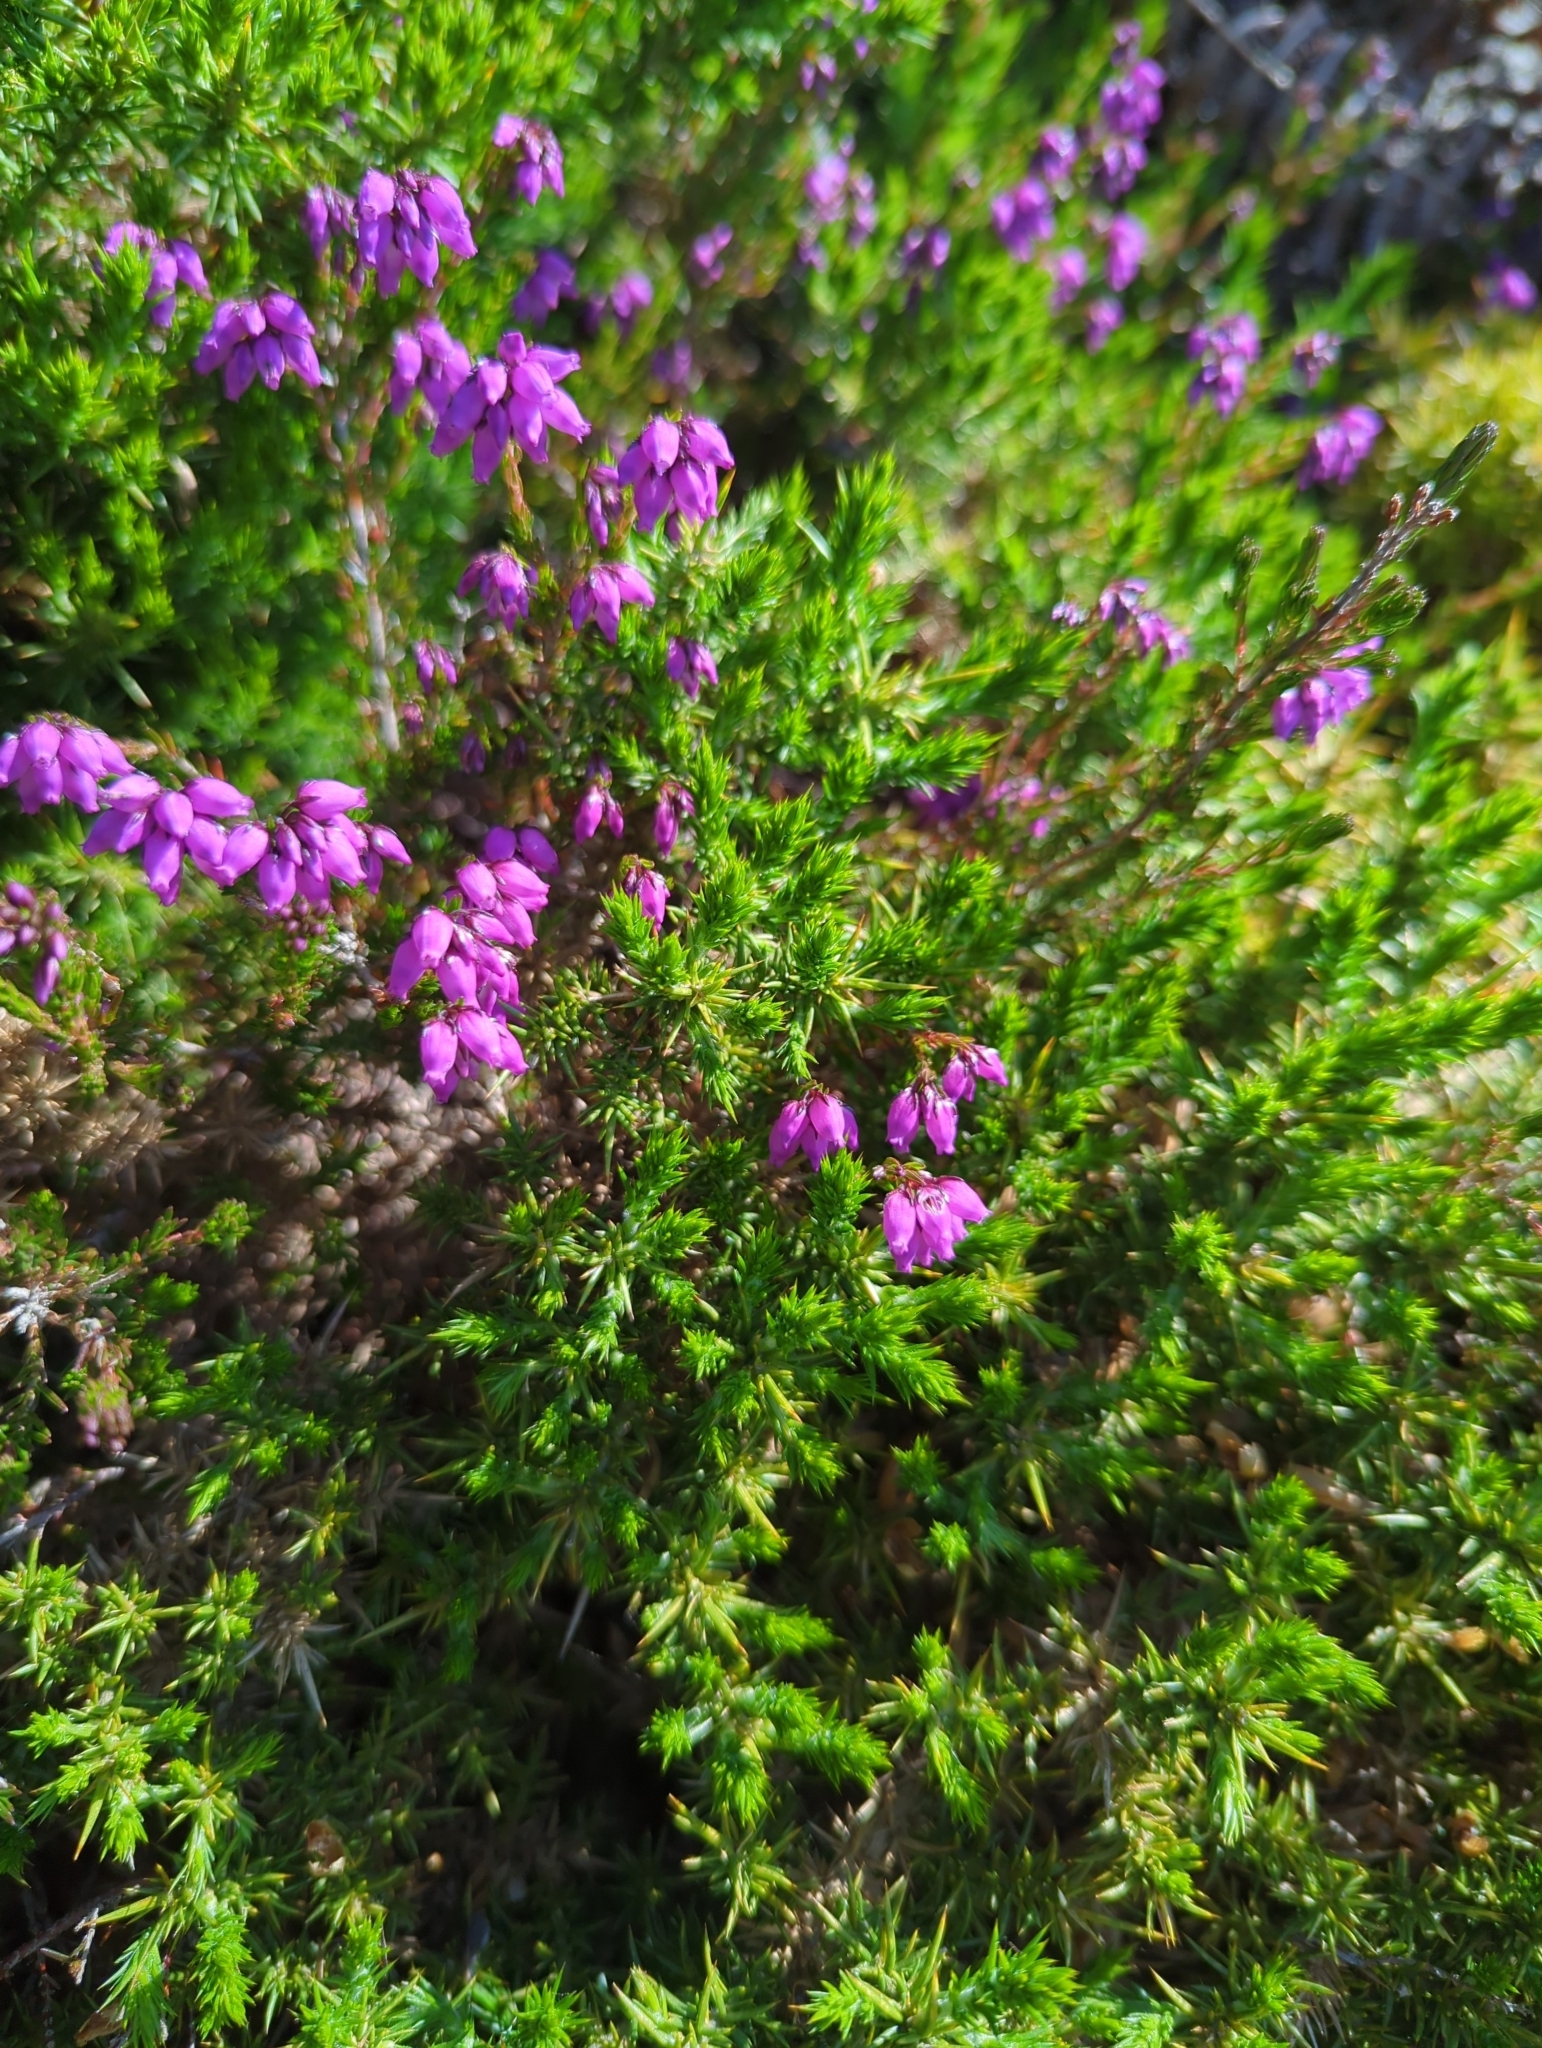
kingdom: Plantae
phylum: Tracheophyta
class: Magnoliopsida
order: Ericales
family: Ericaceae
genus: Erica
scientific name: Erica cinerea
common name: Bell heather
